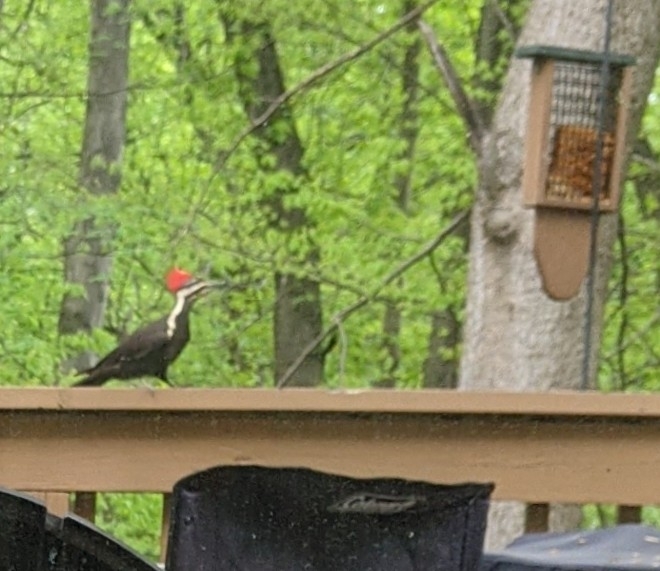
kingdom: Animalia
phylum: Chordata
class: Aves
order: Piciformes
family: Picidae
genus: Dryocopus
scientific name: Dryocopus pileatus
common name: Pileated woodpecker
